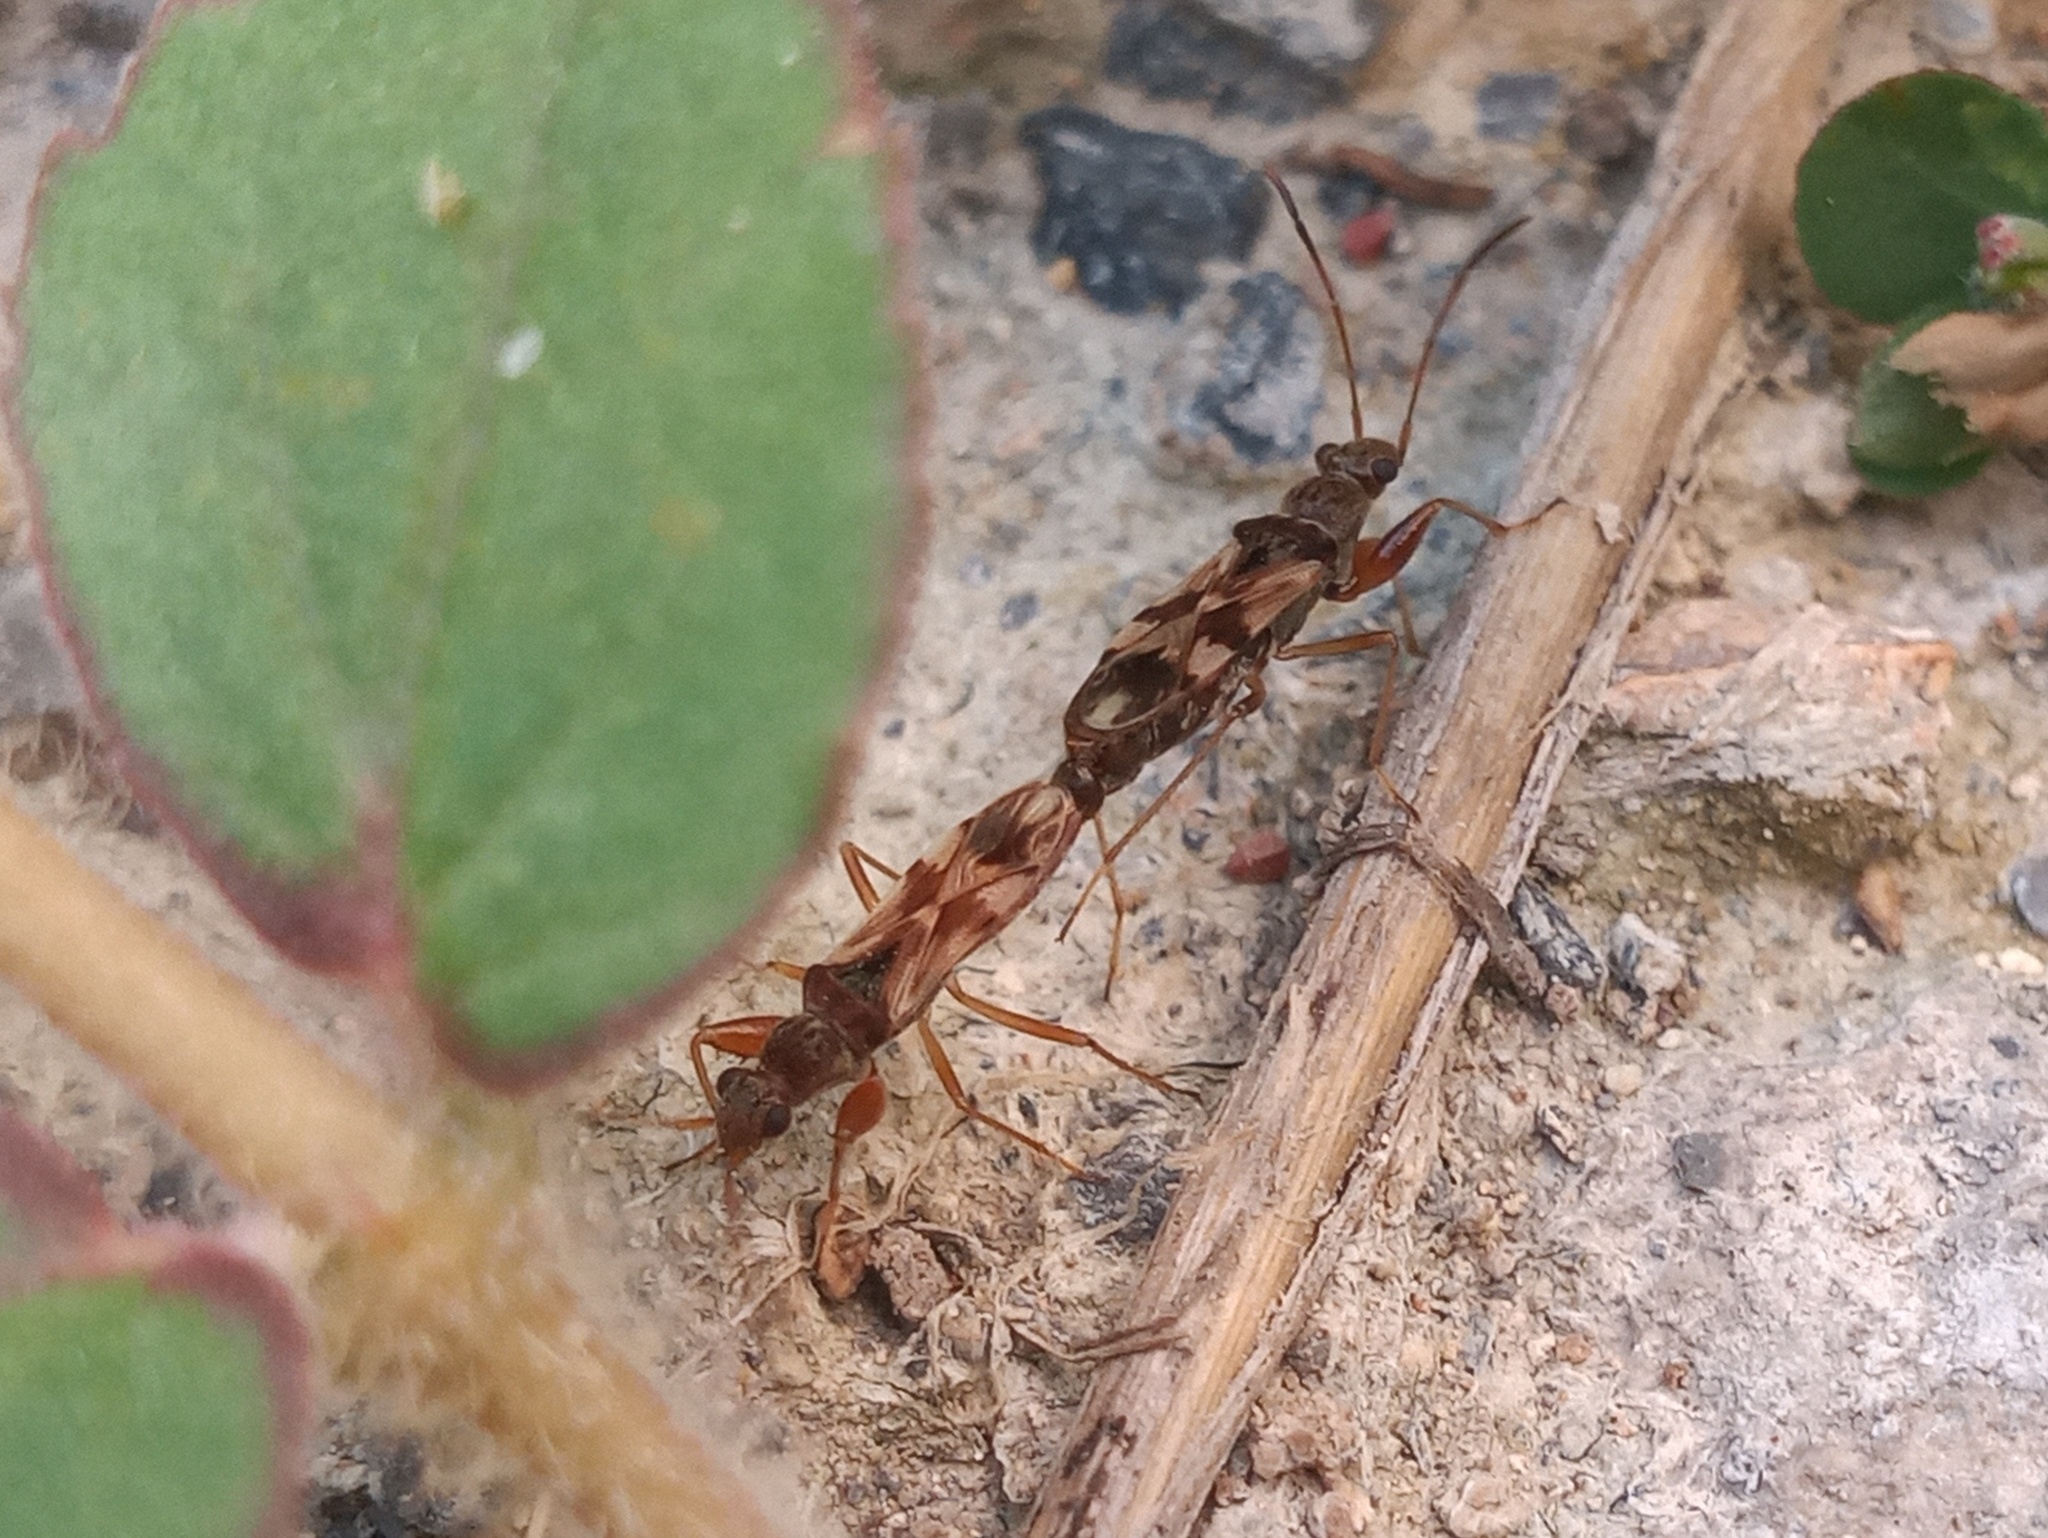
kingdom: Animalia
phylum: Arthropoda
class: Insecta
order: Hemiptera
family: Rhyparochromidae
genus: Neopamera
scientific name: Neopamera bilobata
